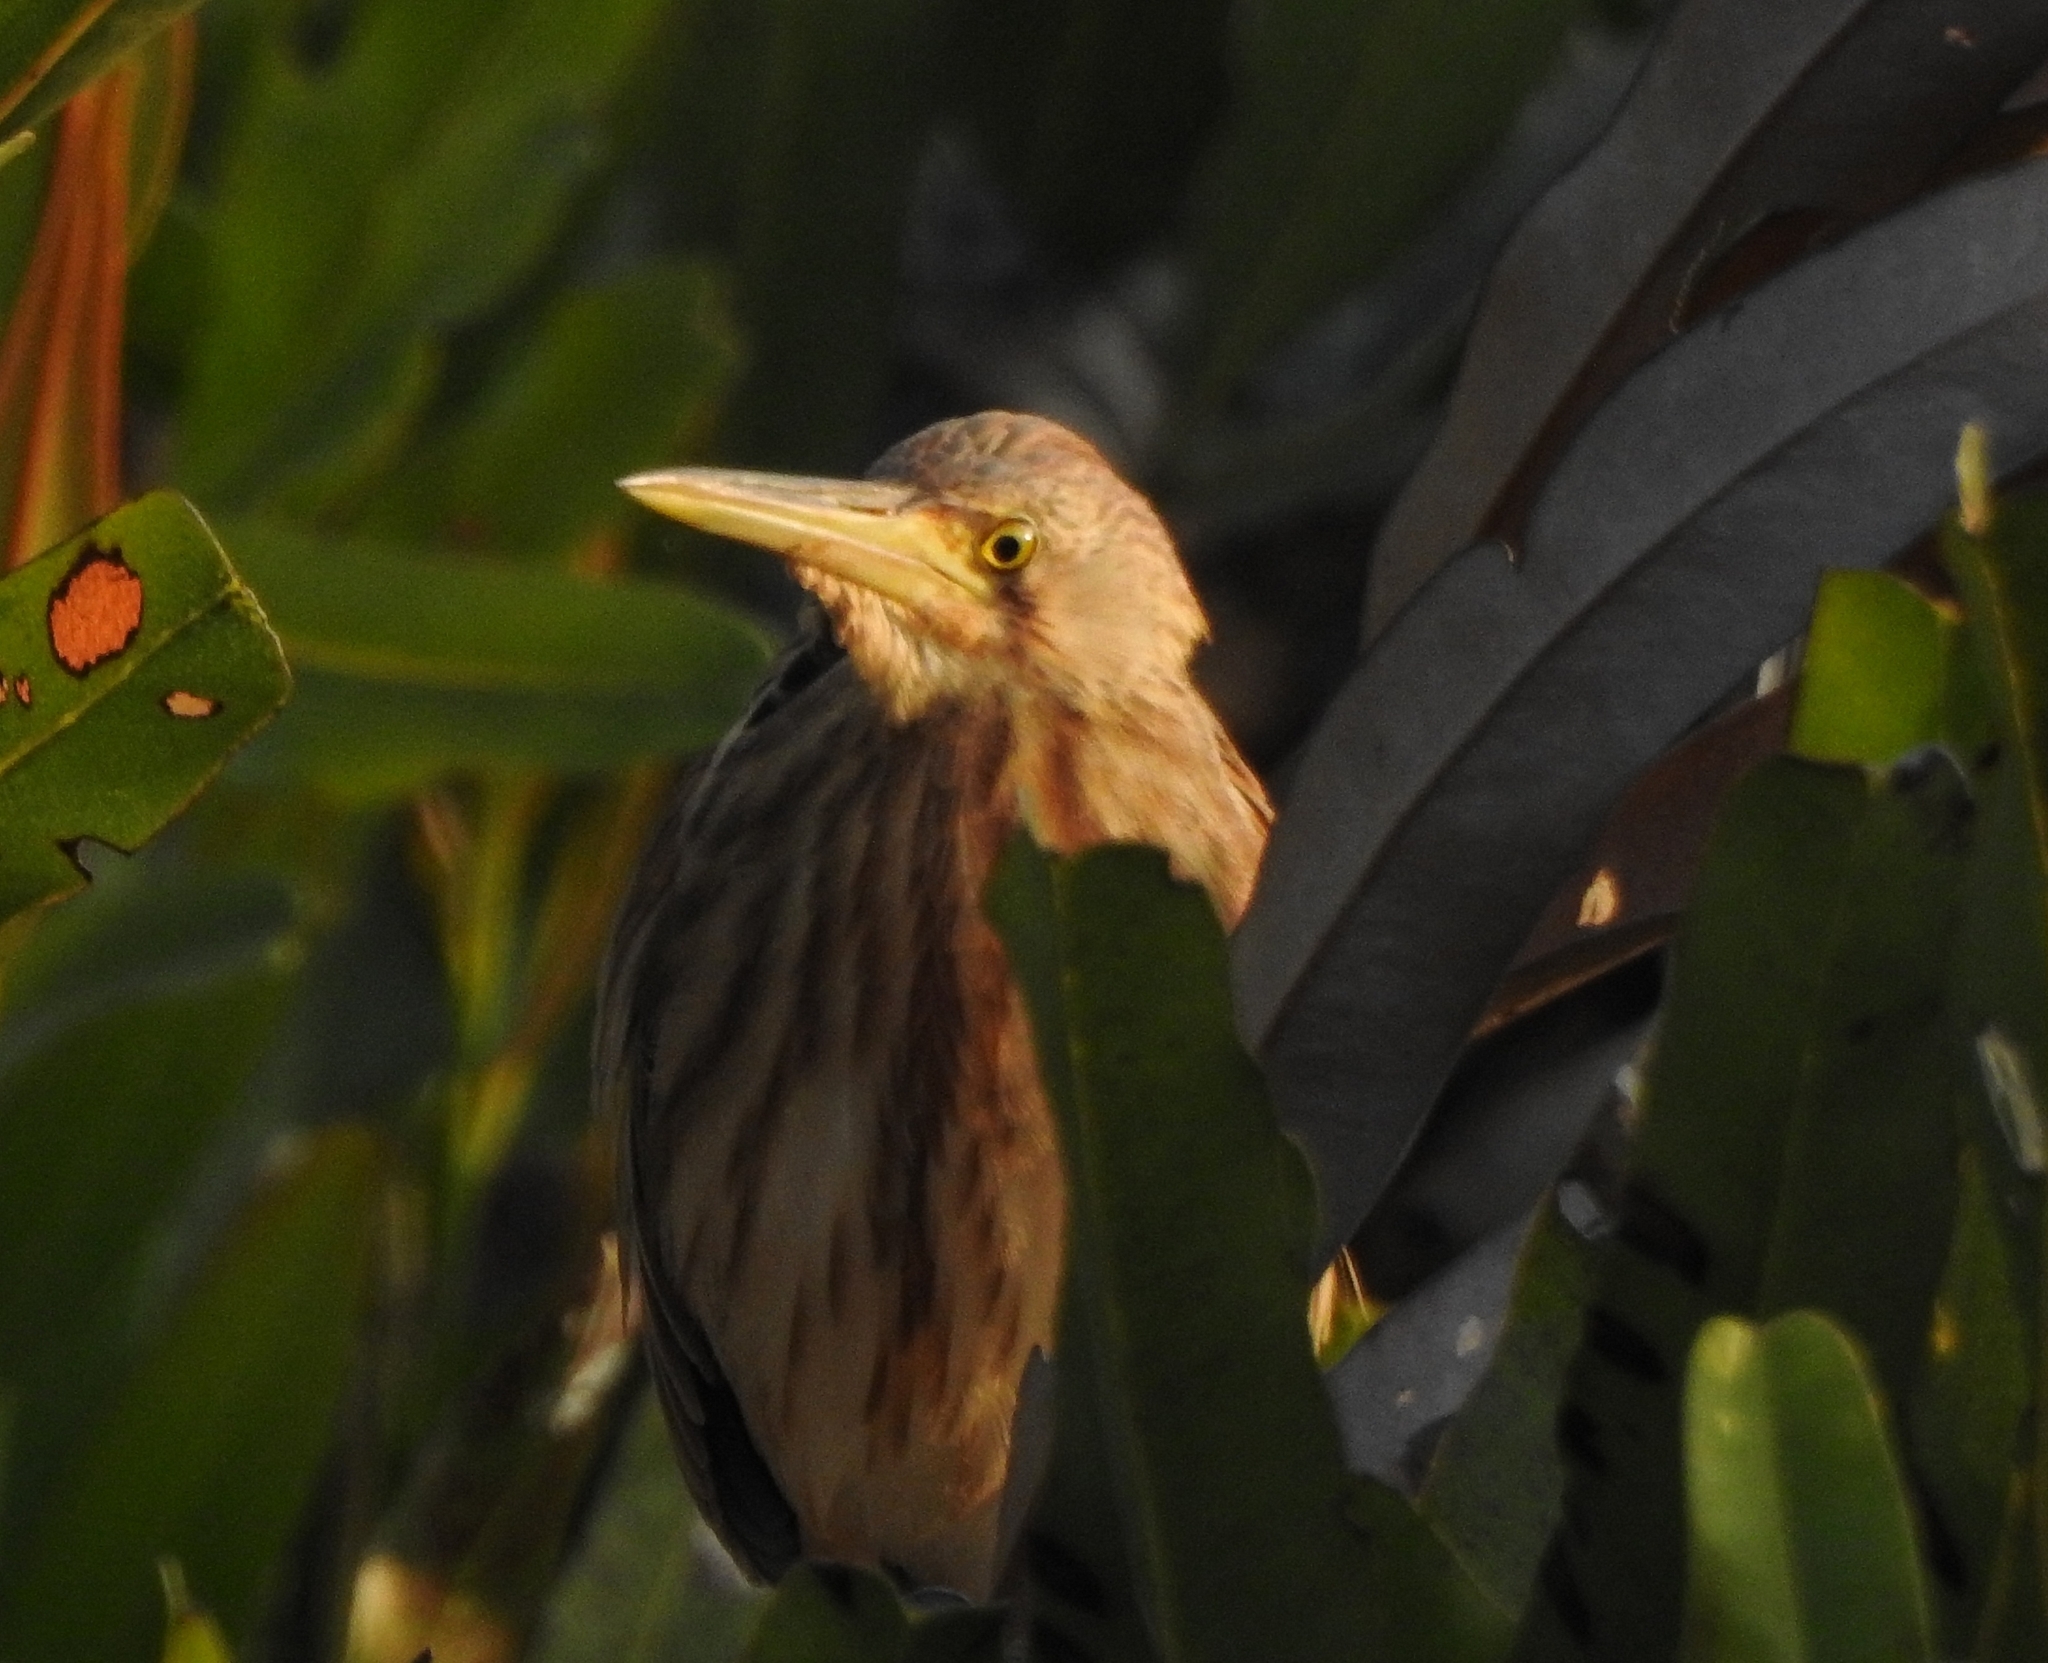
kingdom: Animalia
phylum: Chordata
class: Aves
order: Pelecaniformes
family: Ardeidae
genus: Ixobrychus
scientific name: Ixobrychus sinensis
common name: Yellow bittern
